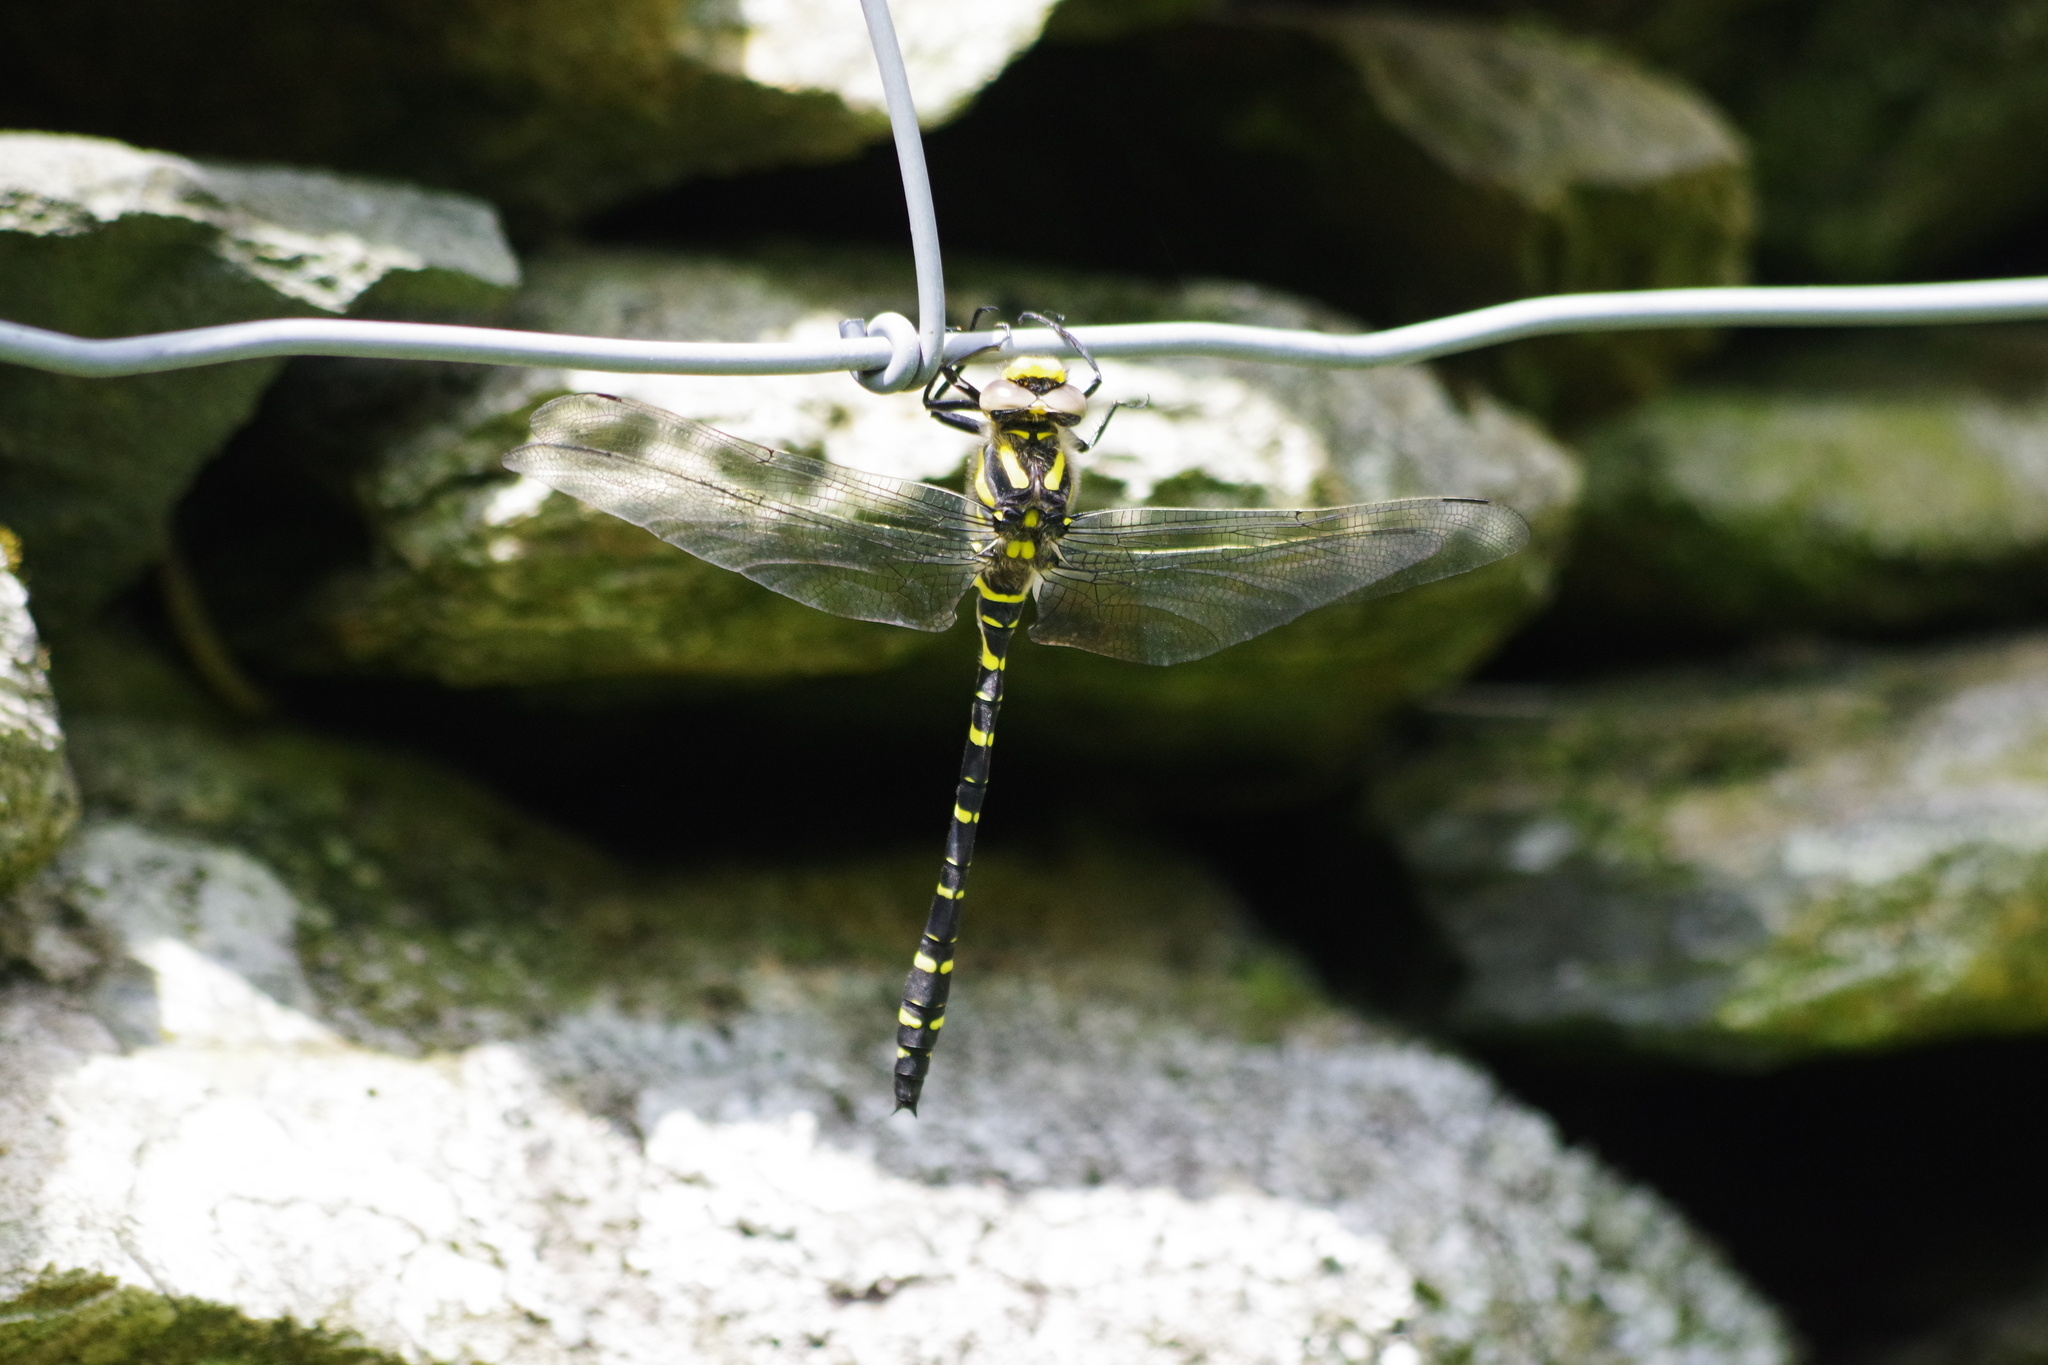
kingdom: Animalia
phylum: Arthropoda
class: Insecta
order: Odonata
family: Cordulegastridae
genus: Cordulegaster
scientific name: Cordulegaster boltonii
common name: Golden-ringed dragonfly
